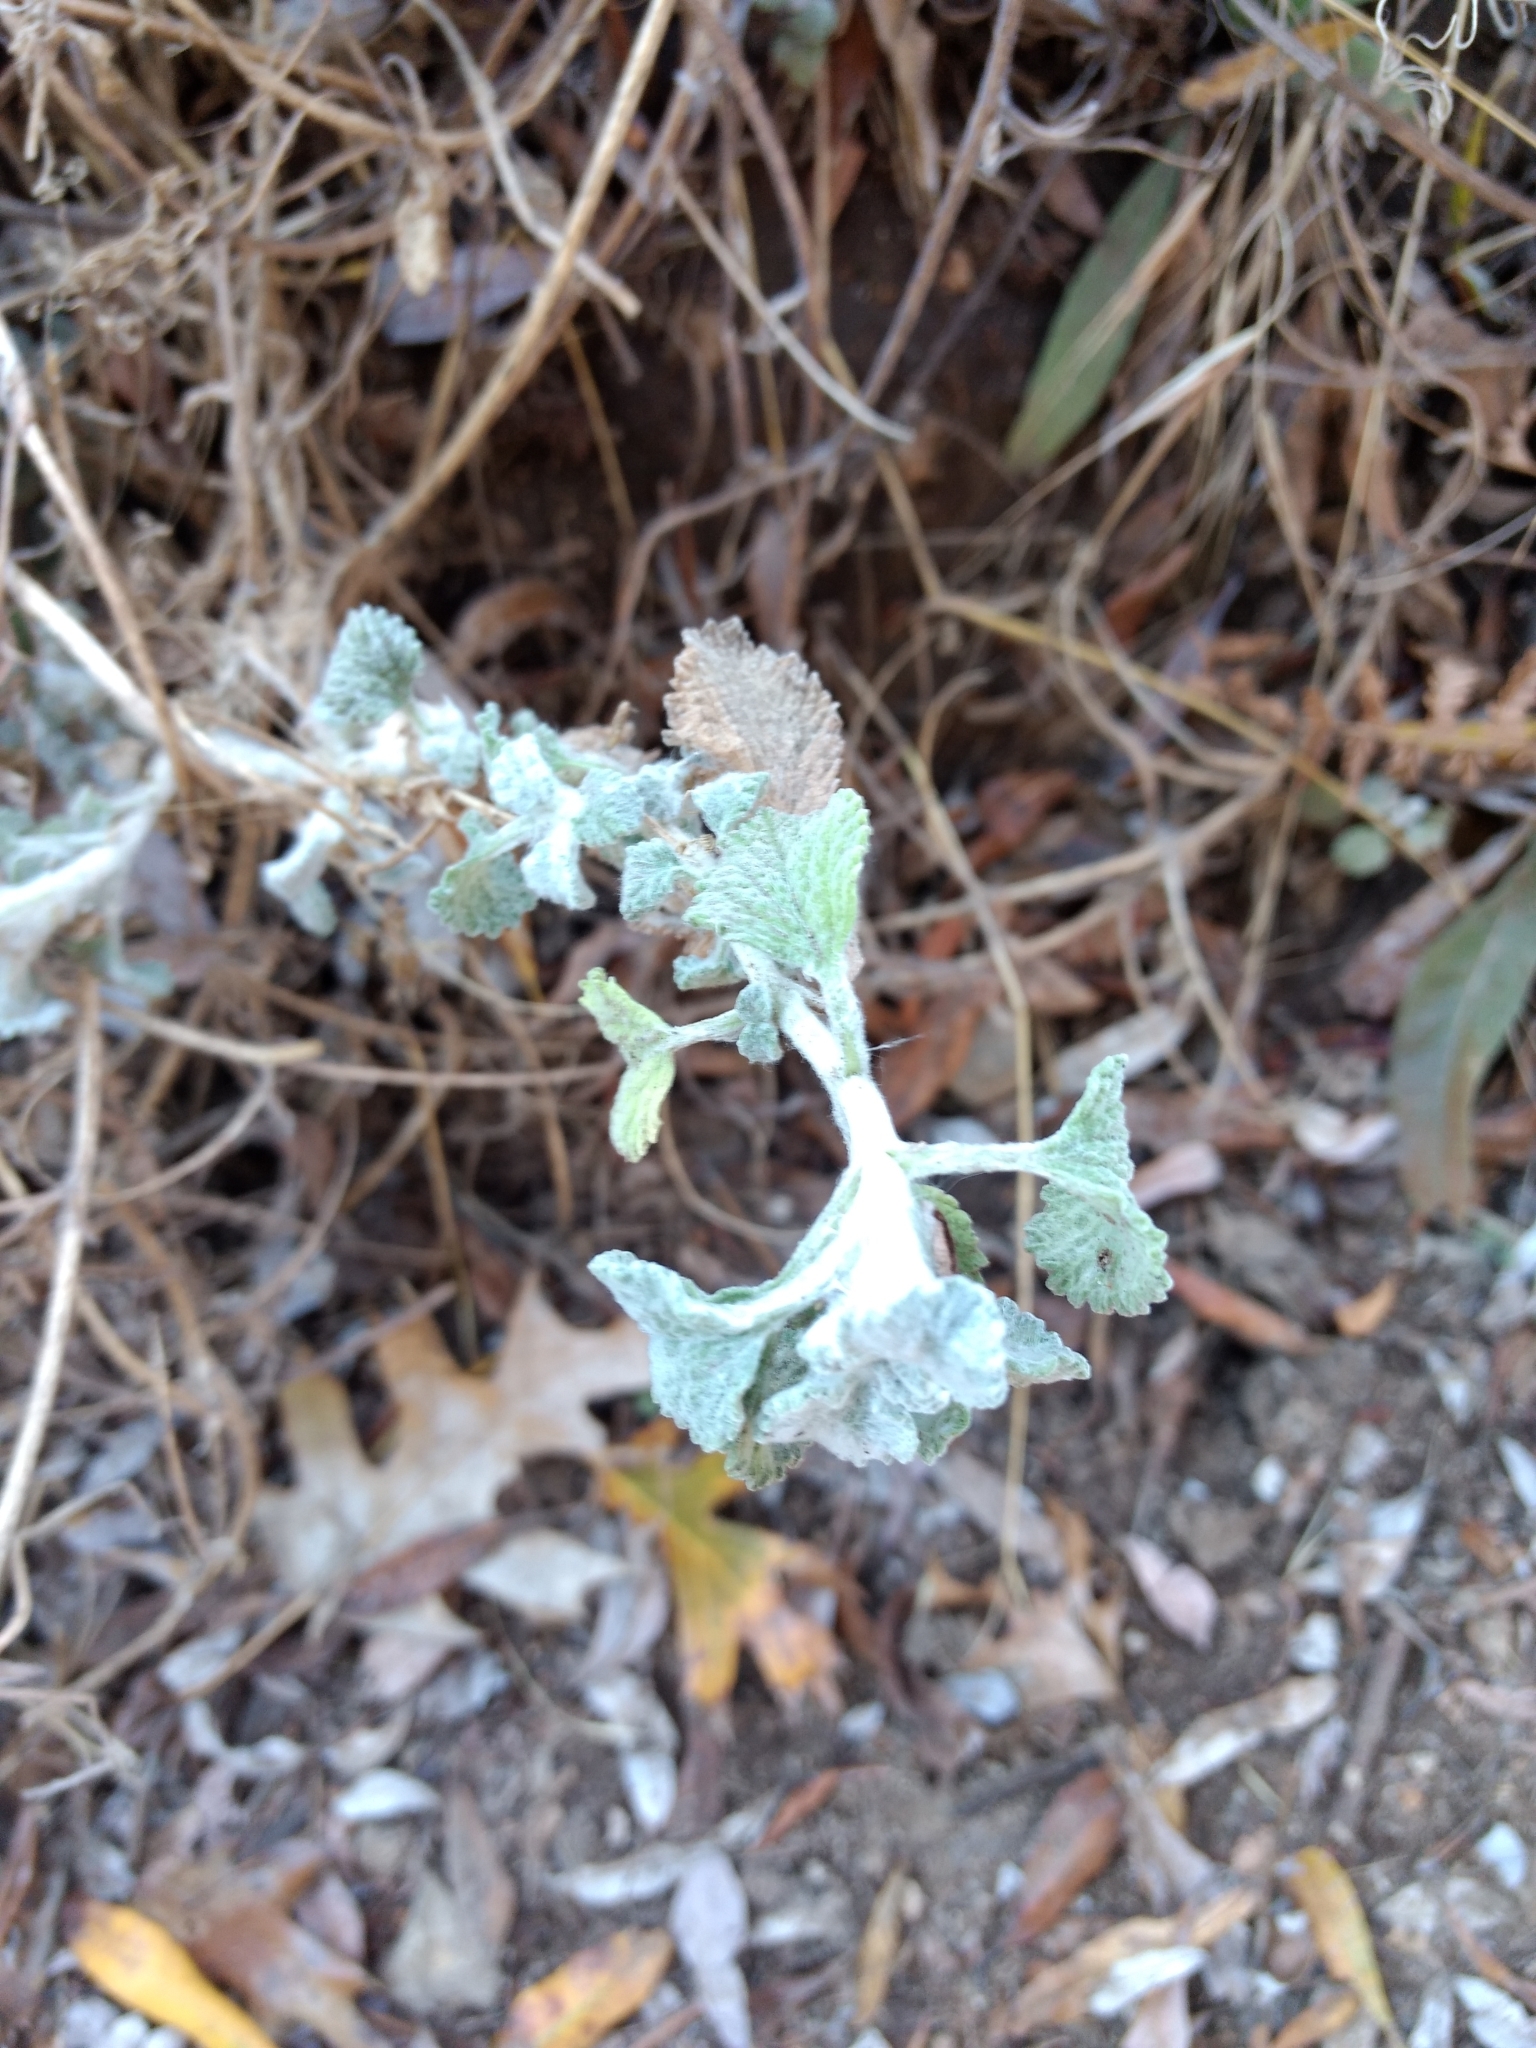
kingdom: Plantae
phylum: Tracheophyta
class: Magnoliopsida
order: Lamiales
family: Lamiaceae
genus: Marrubium
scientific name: Marrubium vulgare
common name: Horehound
